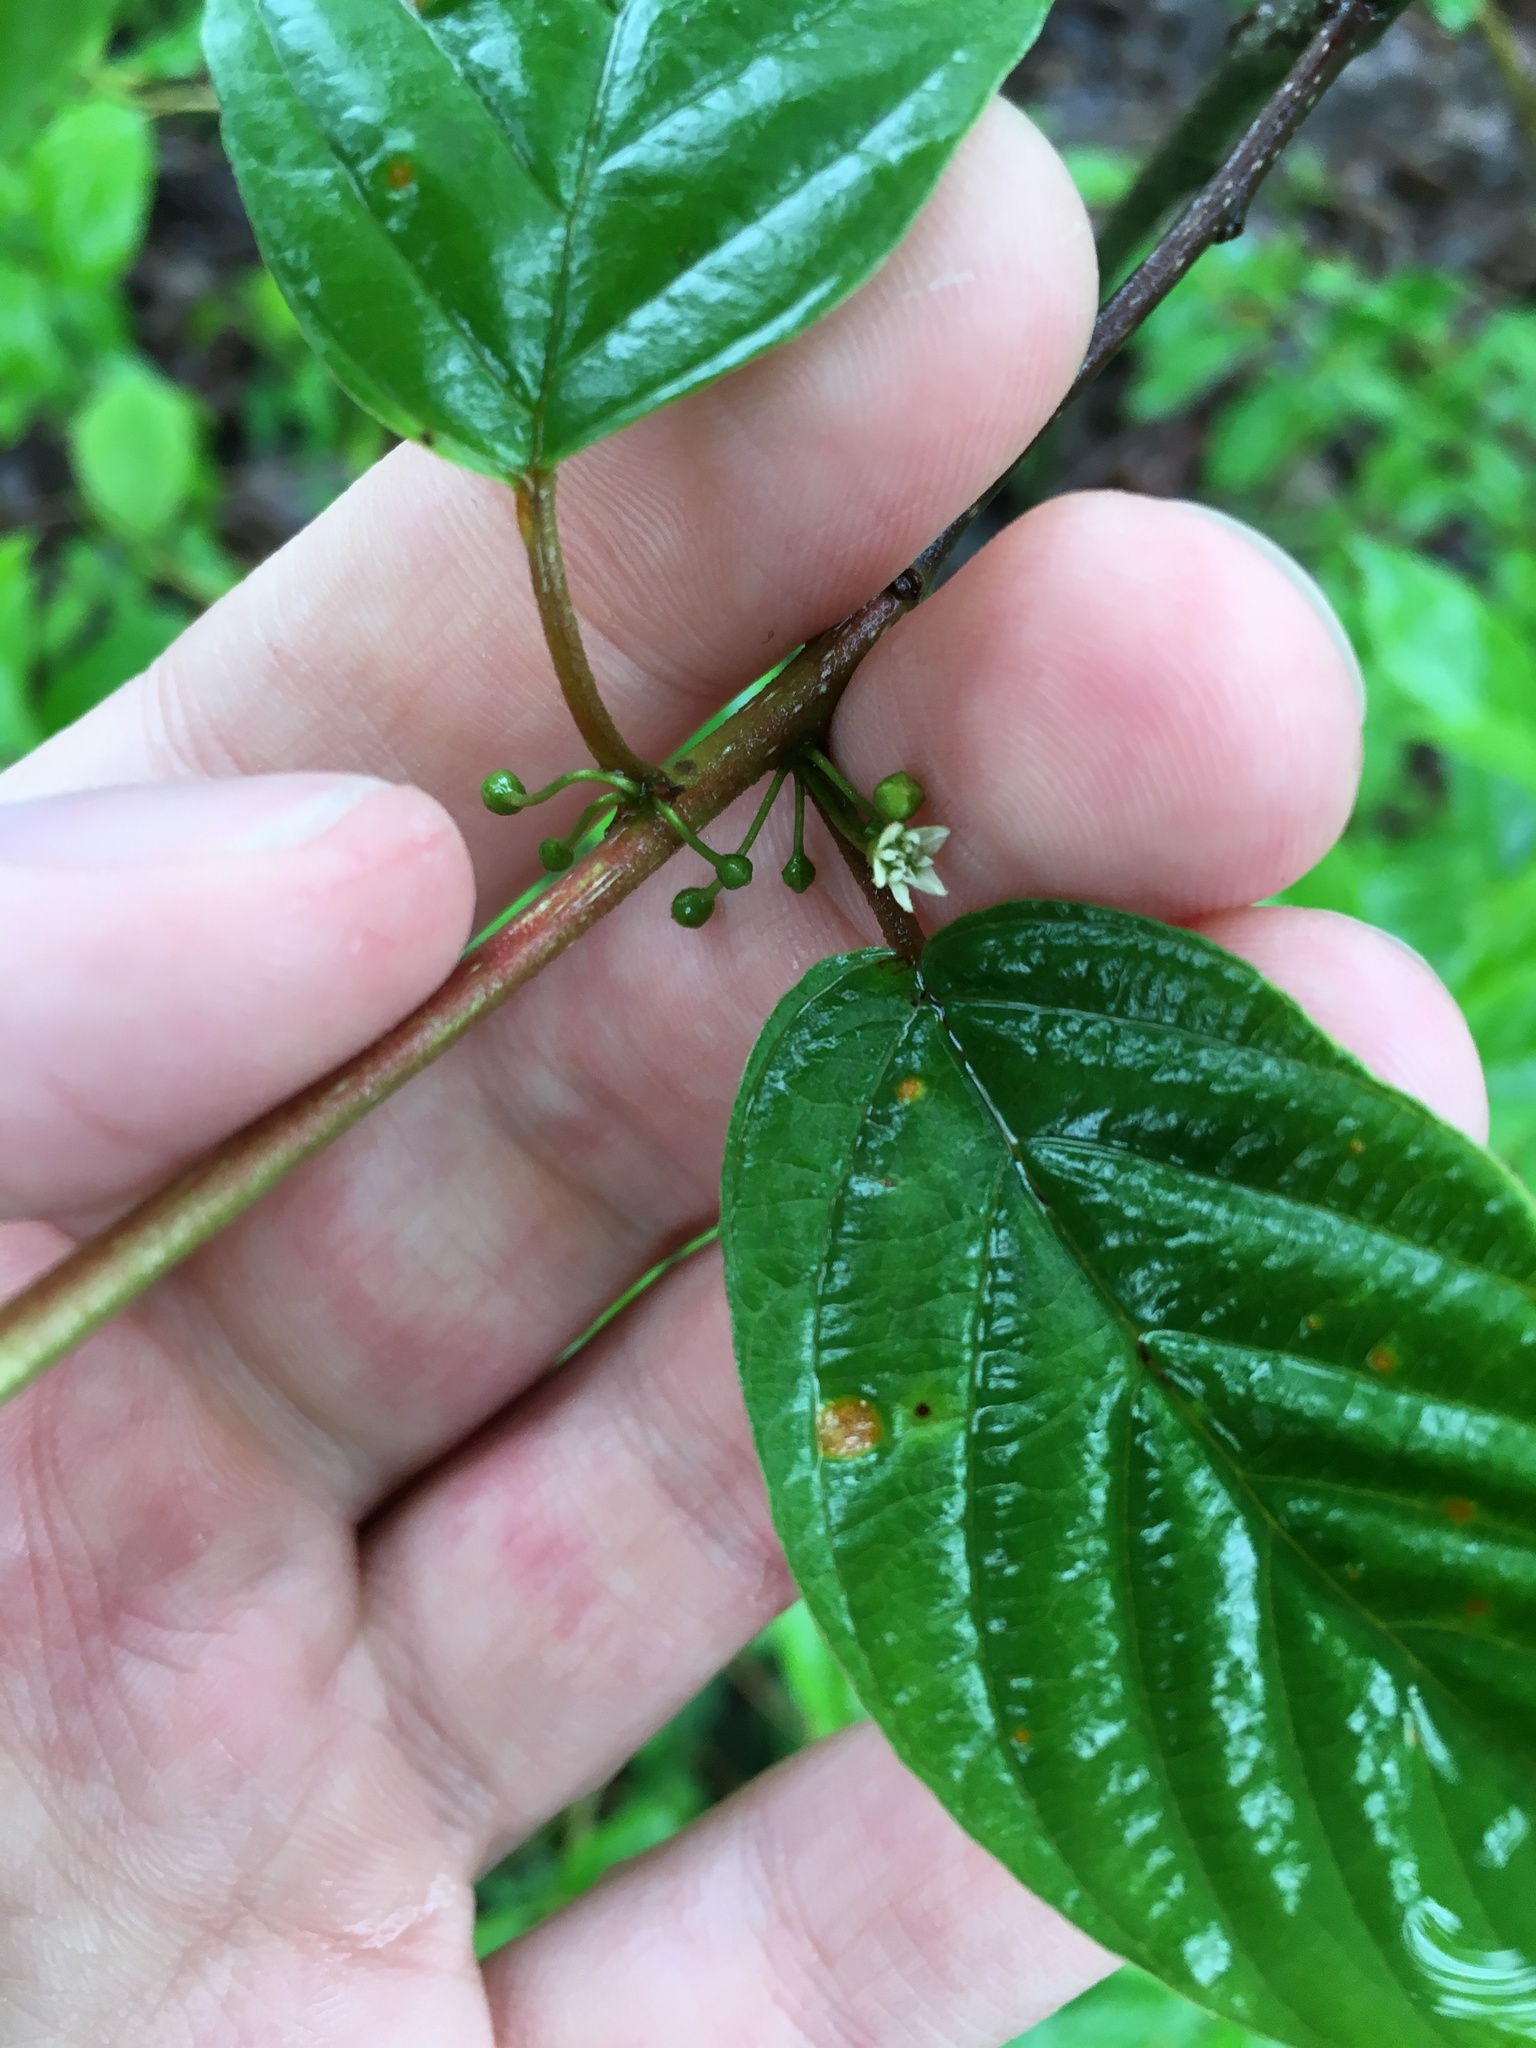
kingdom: Plantae
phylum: Tracheophyta
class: Magnoliopsida
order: Rosales
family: Rhamnaceae
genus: Frangula
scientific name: Frangula alnus
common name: Alder buckthorn
